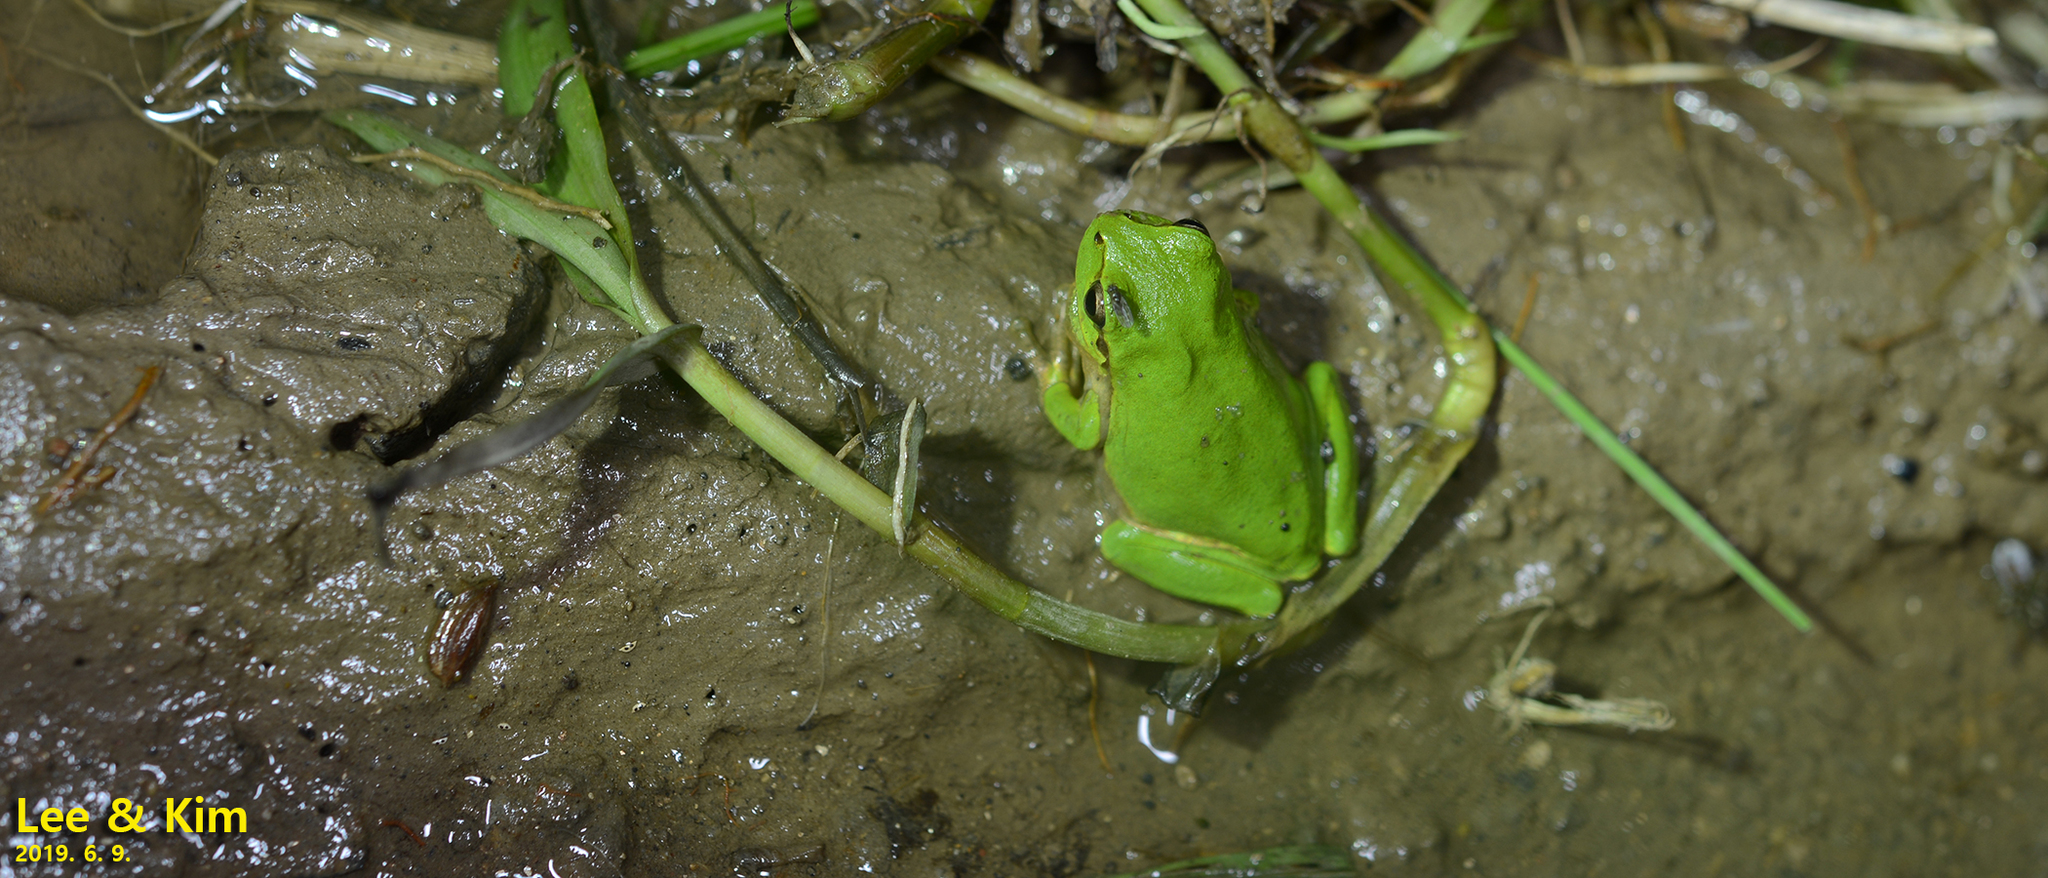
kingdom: Animalia
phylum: Chordata
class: Amphibia
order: Anura
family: Hylidae
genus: Dryophytes
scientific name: Dryophytes japonicus
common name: Japanese treefrog
